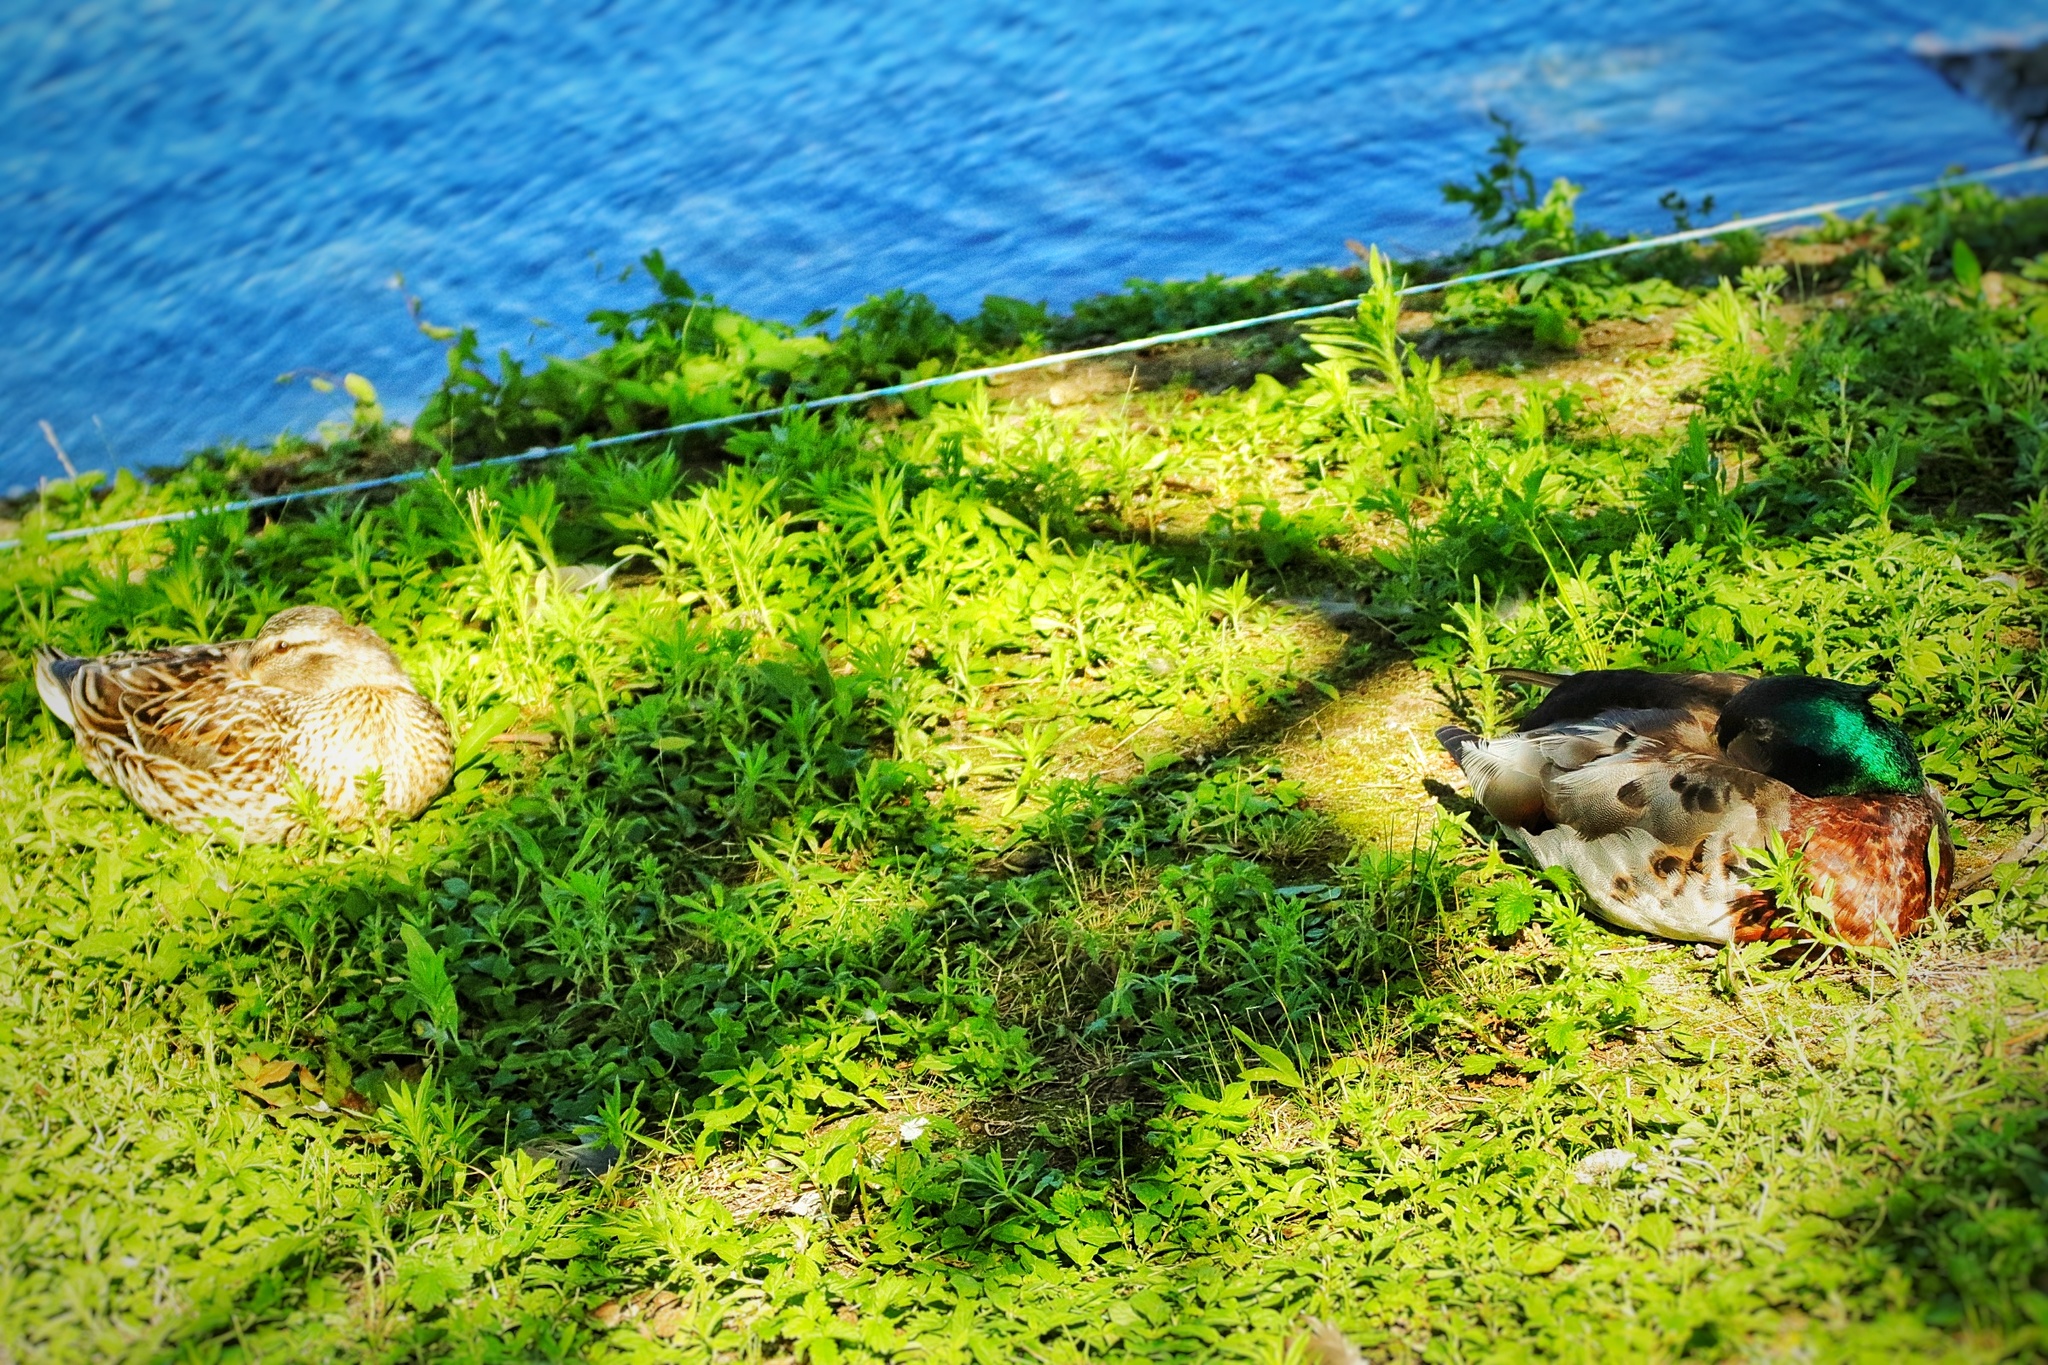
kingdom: Animalia
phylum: Chordata
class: Aves
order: Anseriformes
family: Anatidae
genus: Anas
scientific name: Anas platyrhynchos
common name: Mallard
